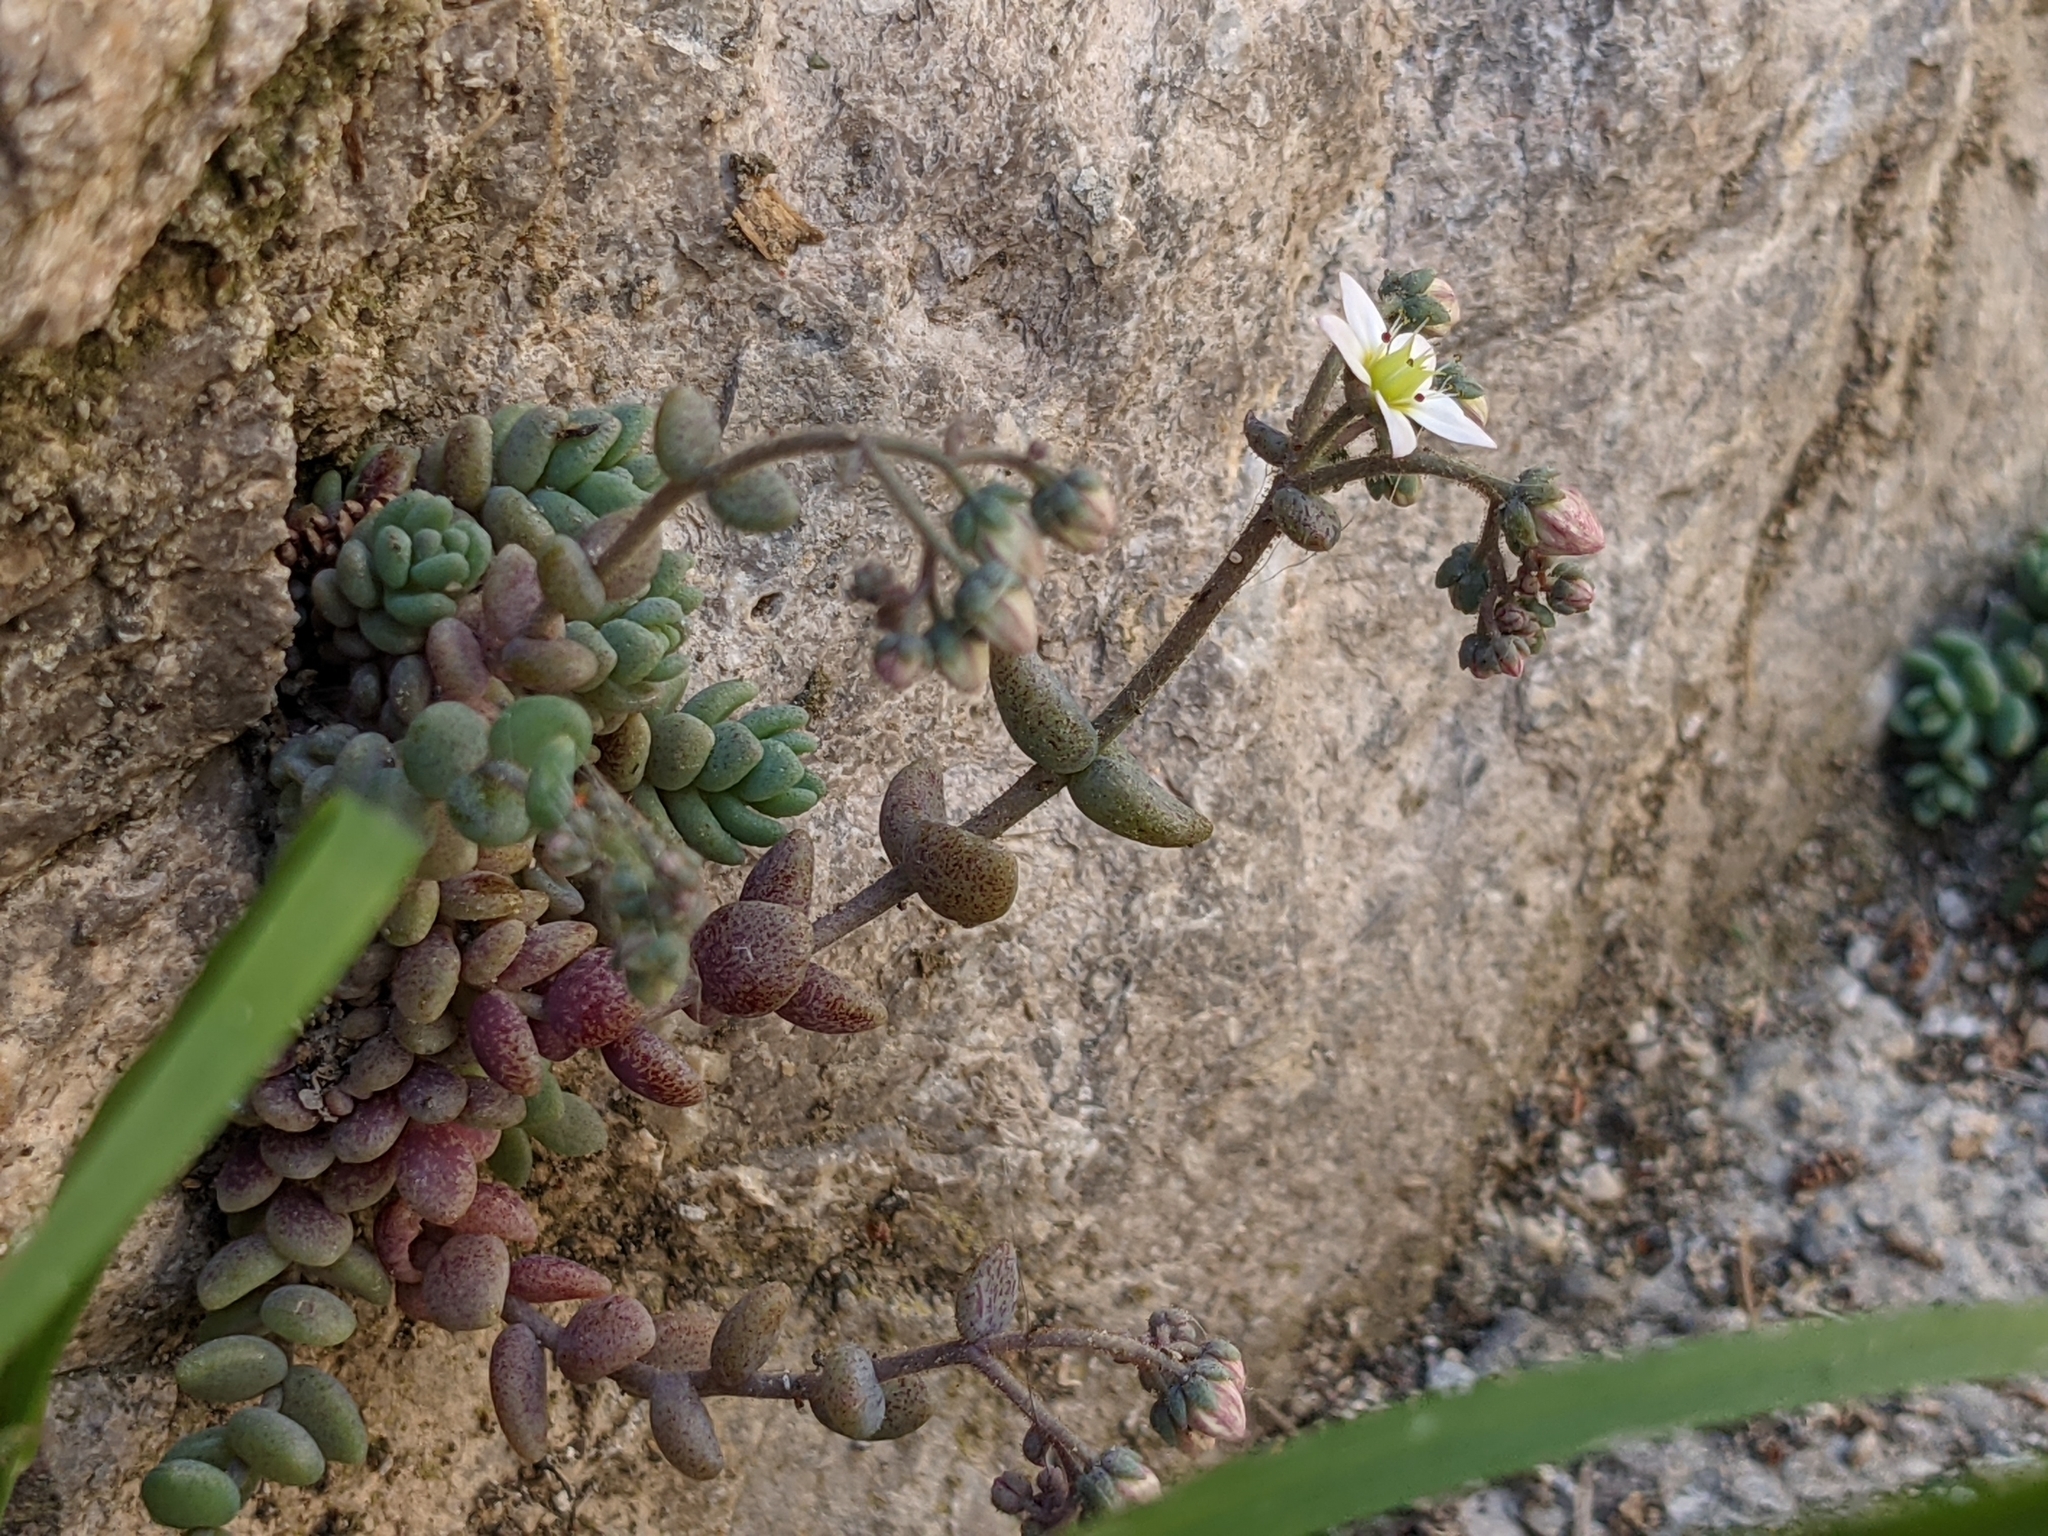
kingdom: Plantae
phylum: Tracheophyta
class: Magnoliopsida
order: Saxifragales
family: Crassulaceae
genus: Sedum
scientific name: Sedum dasyphyllum
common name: Thick-leaf stonecrop
